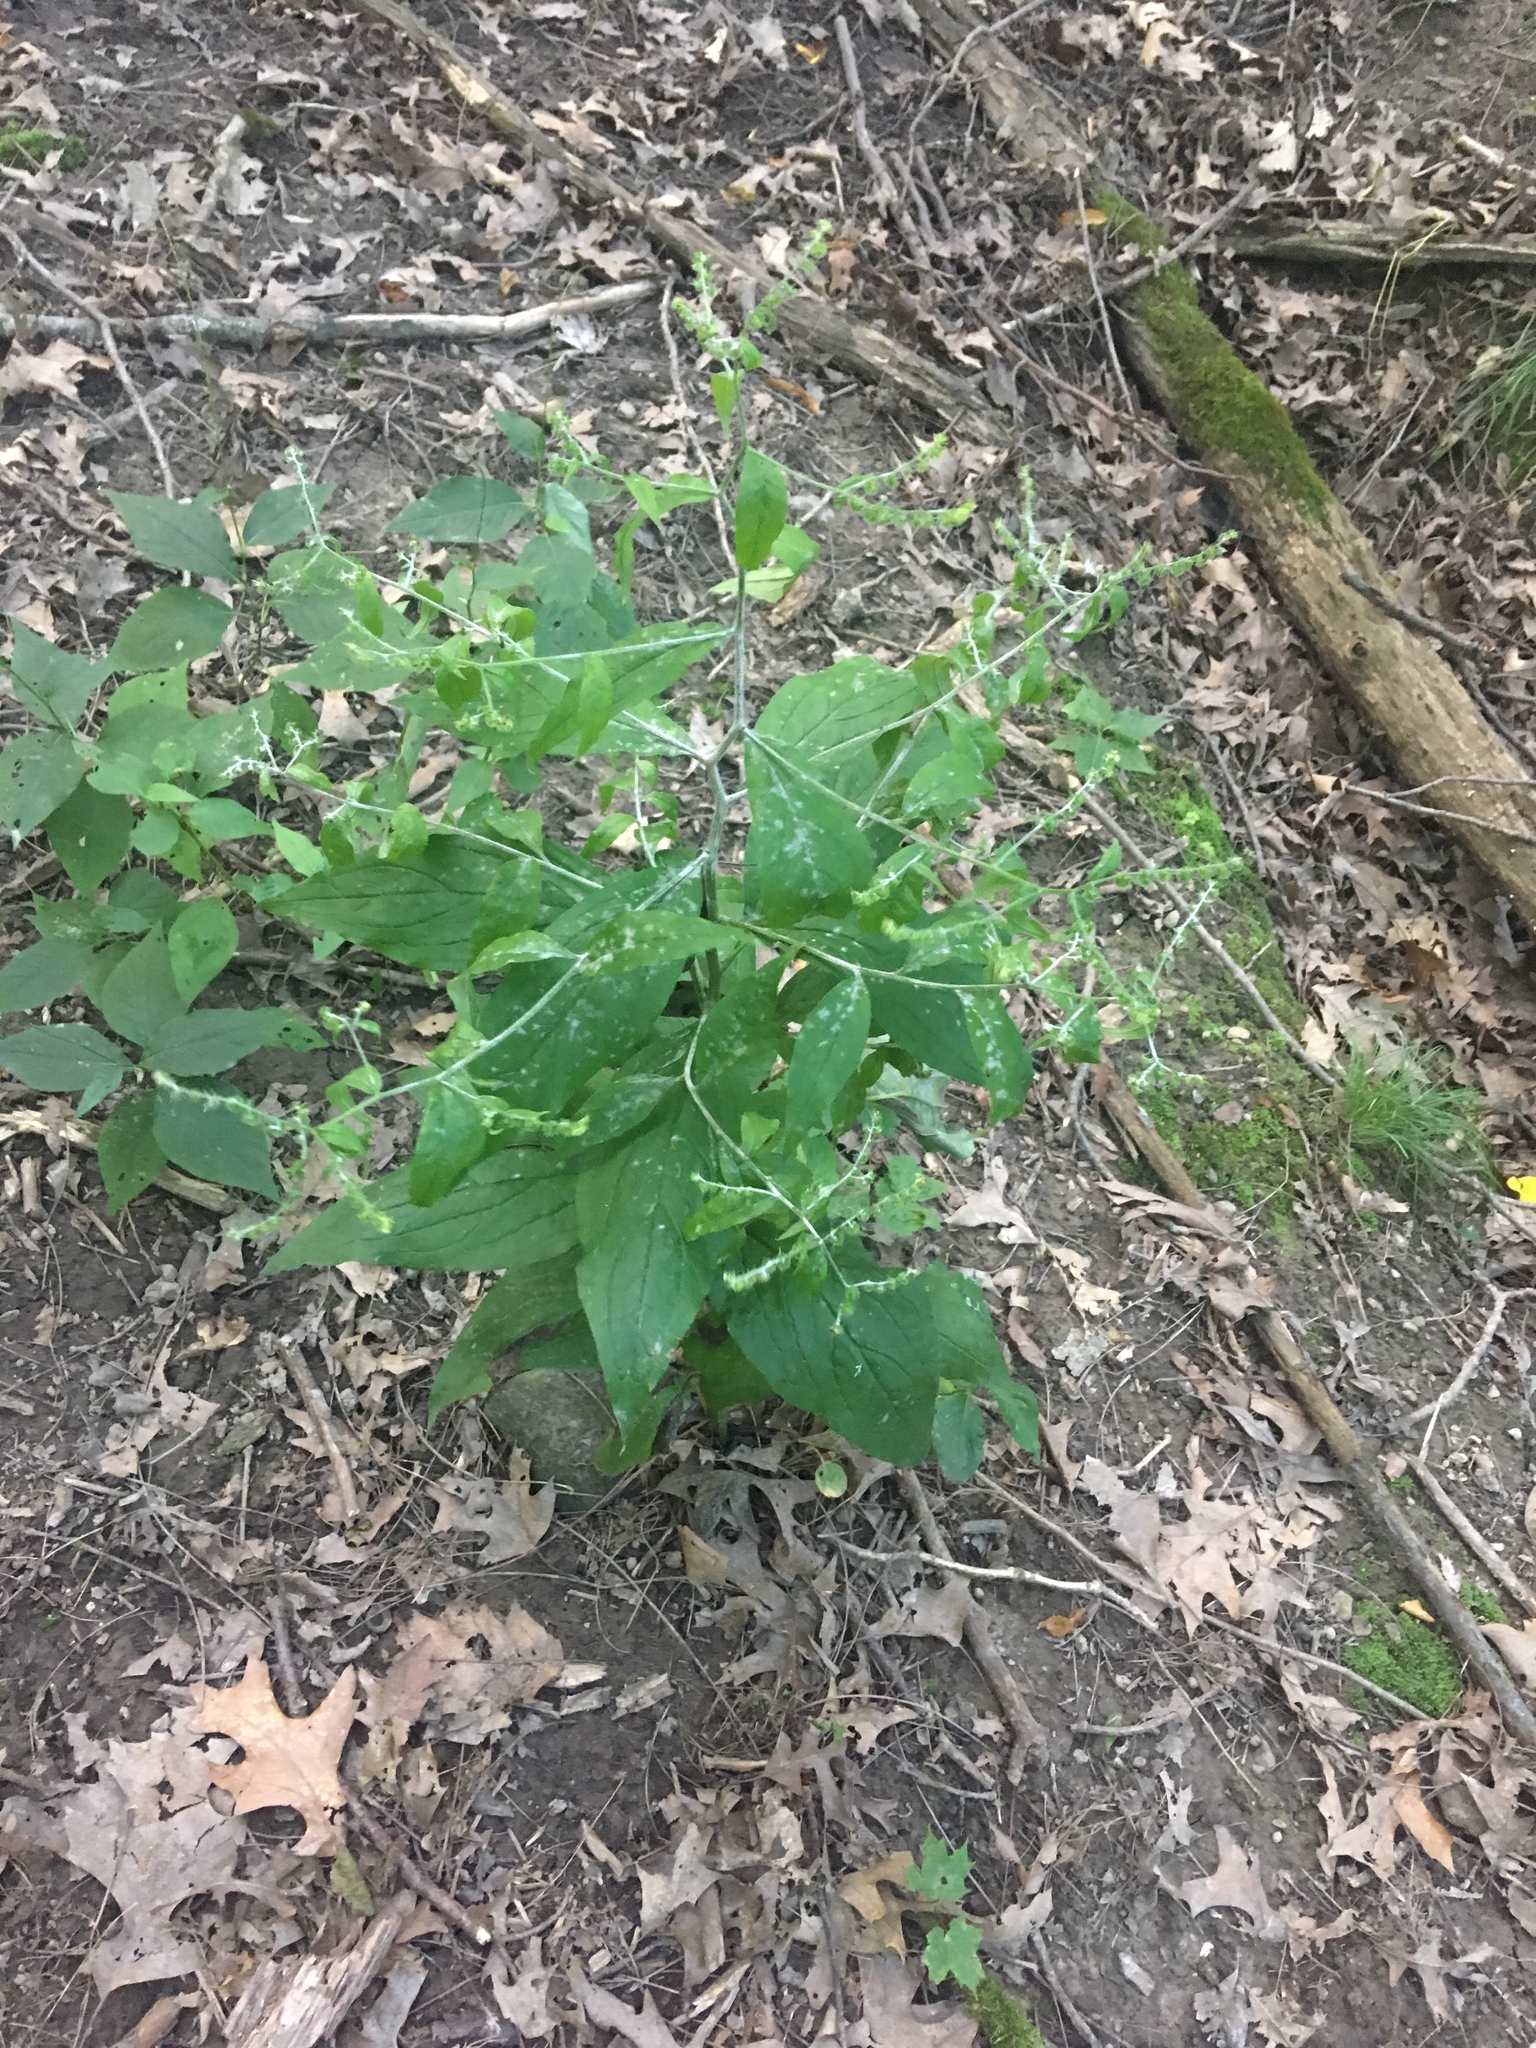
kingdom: Plantae
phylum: Tracheophyta
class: Magnoliopsida
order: Boraginales
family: Boraginaceae
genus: Hackelia
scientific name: Hackelia virginiana
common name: Beggar's-lice
